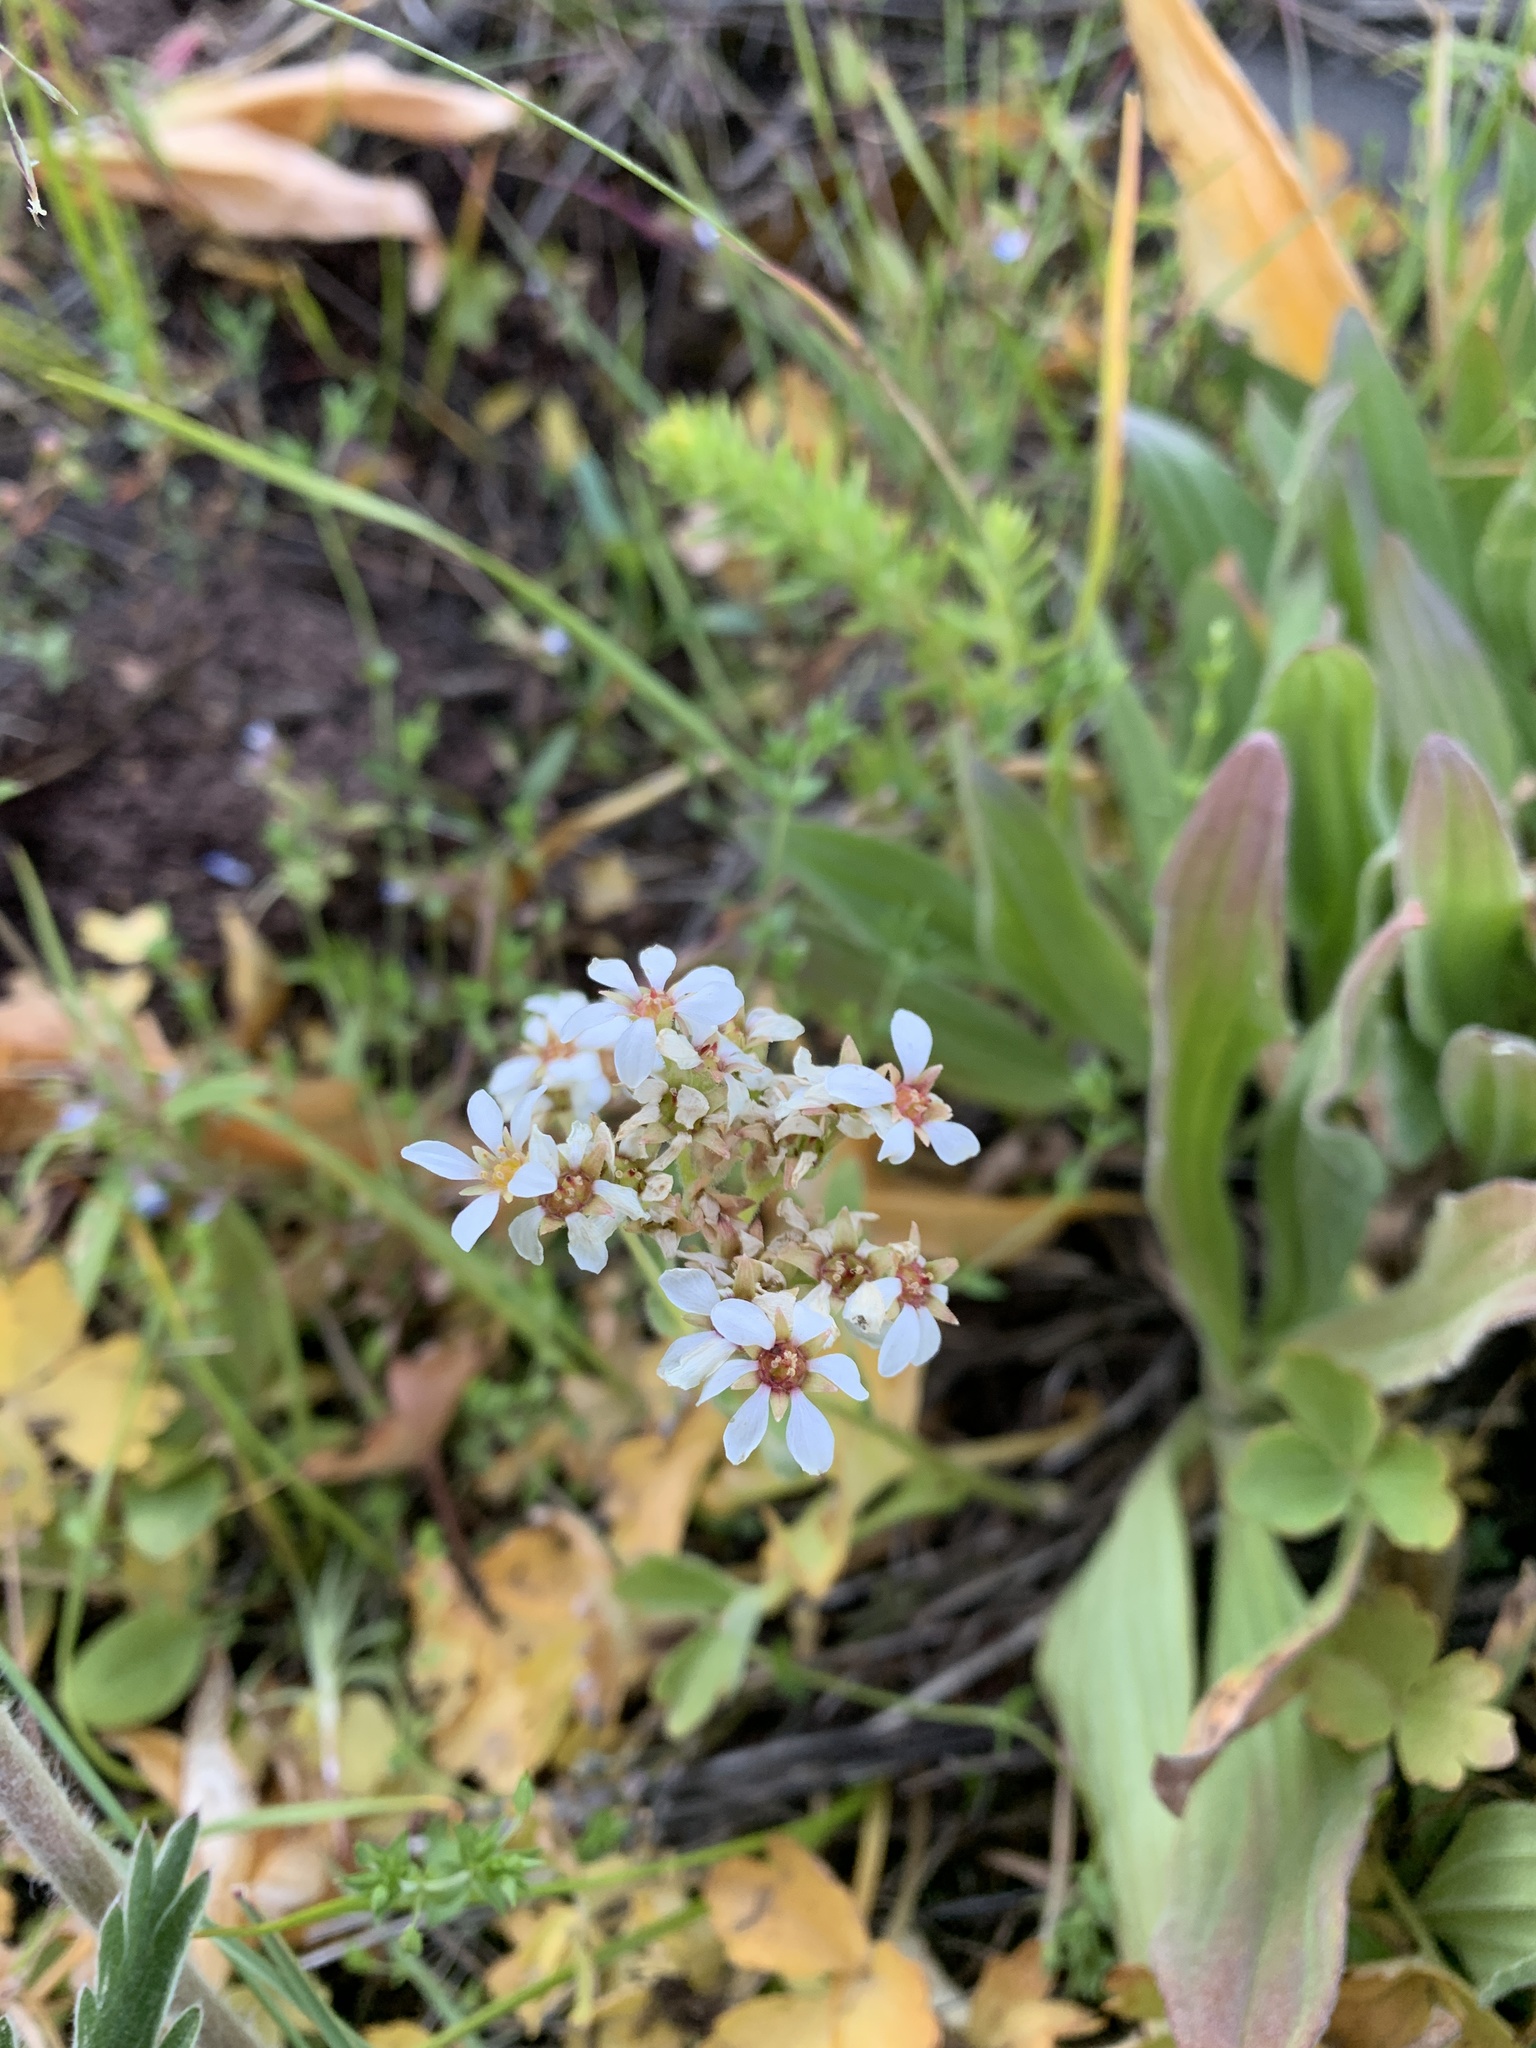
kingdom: Plantae
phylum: Tracheophyta
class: Magnoliopsida
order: Saxifragales
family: Saxifragaceae
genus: Hemieva
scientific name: Hemieva ranunculifolia
